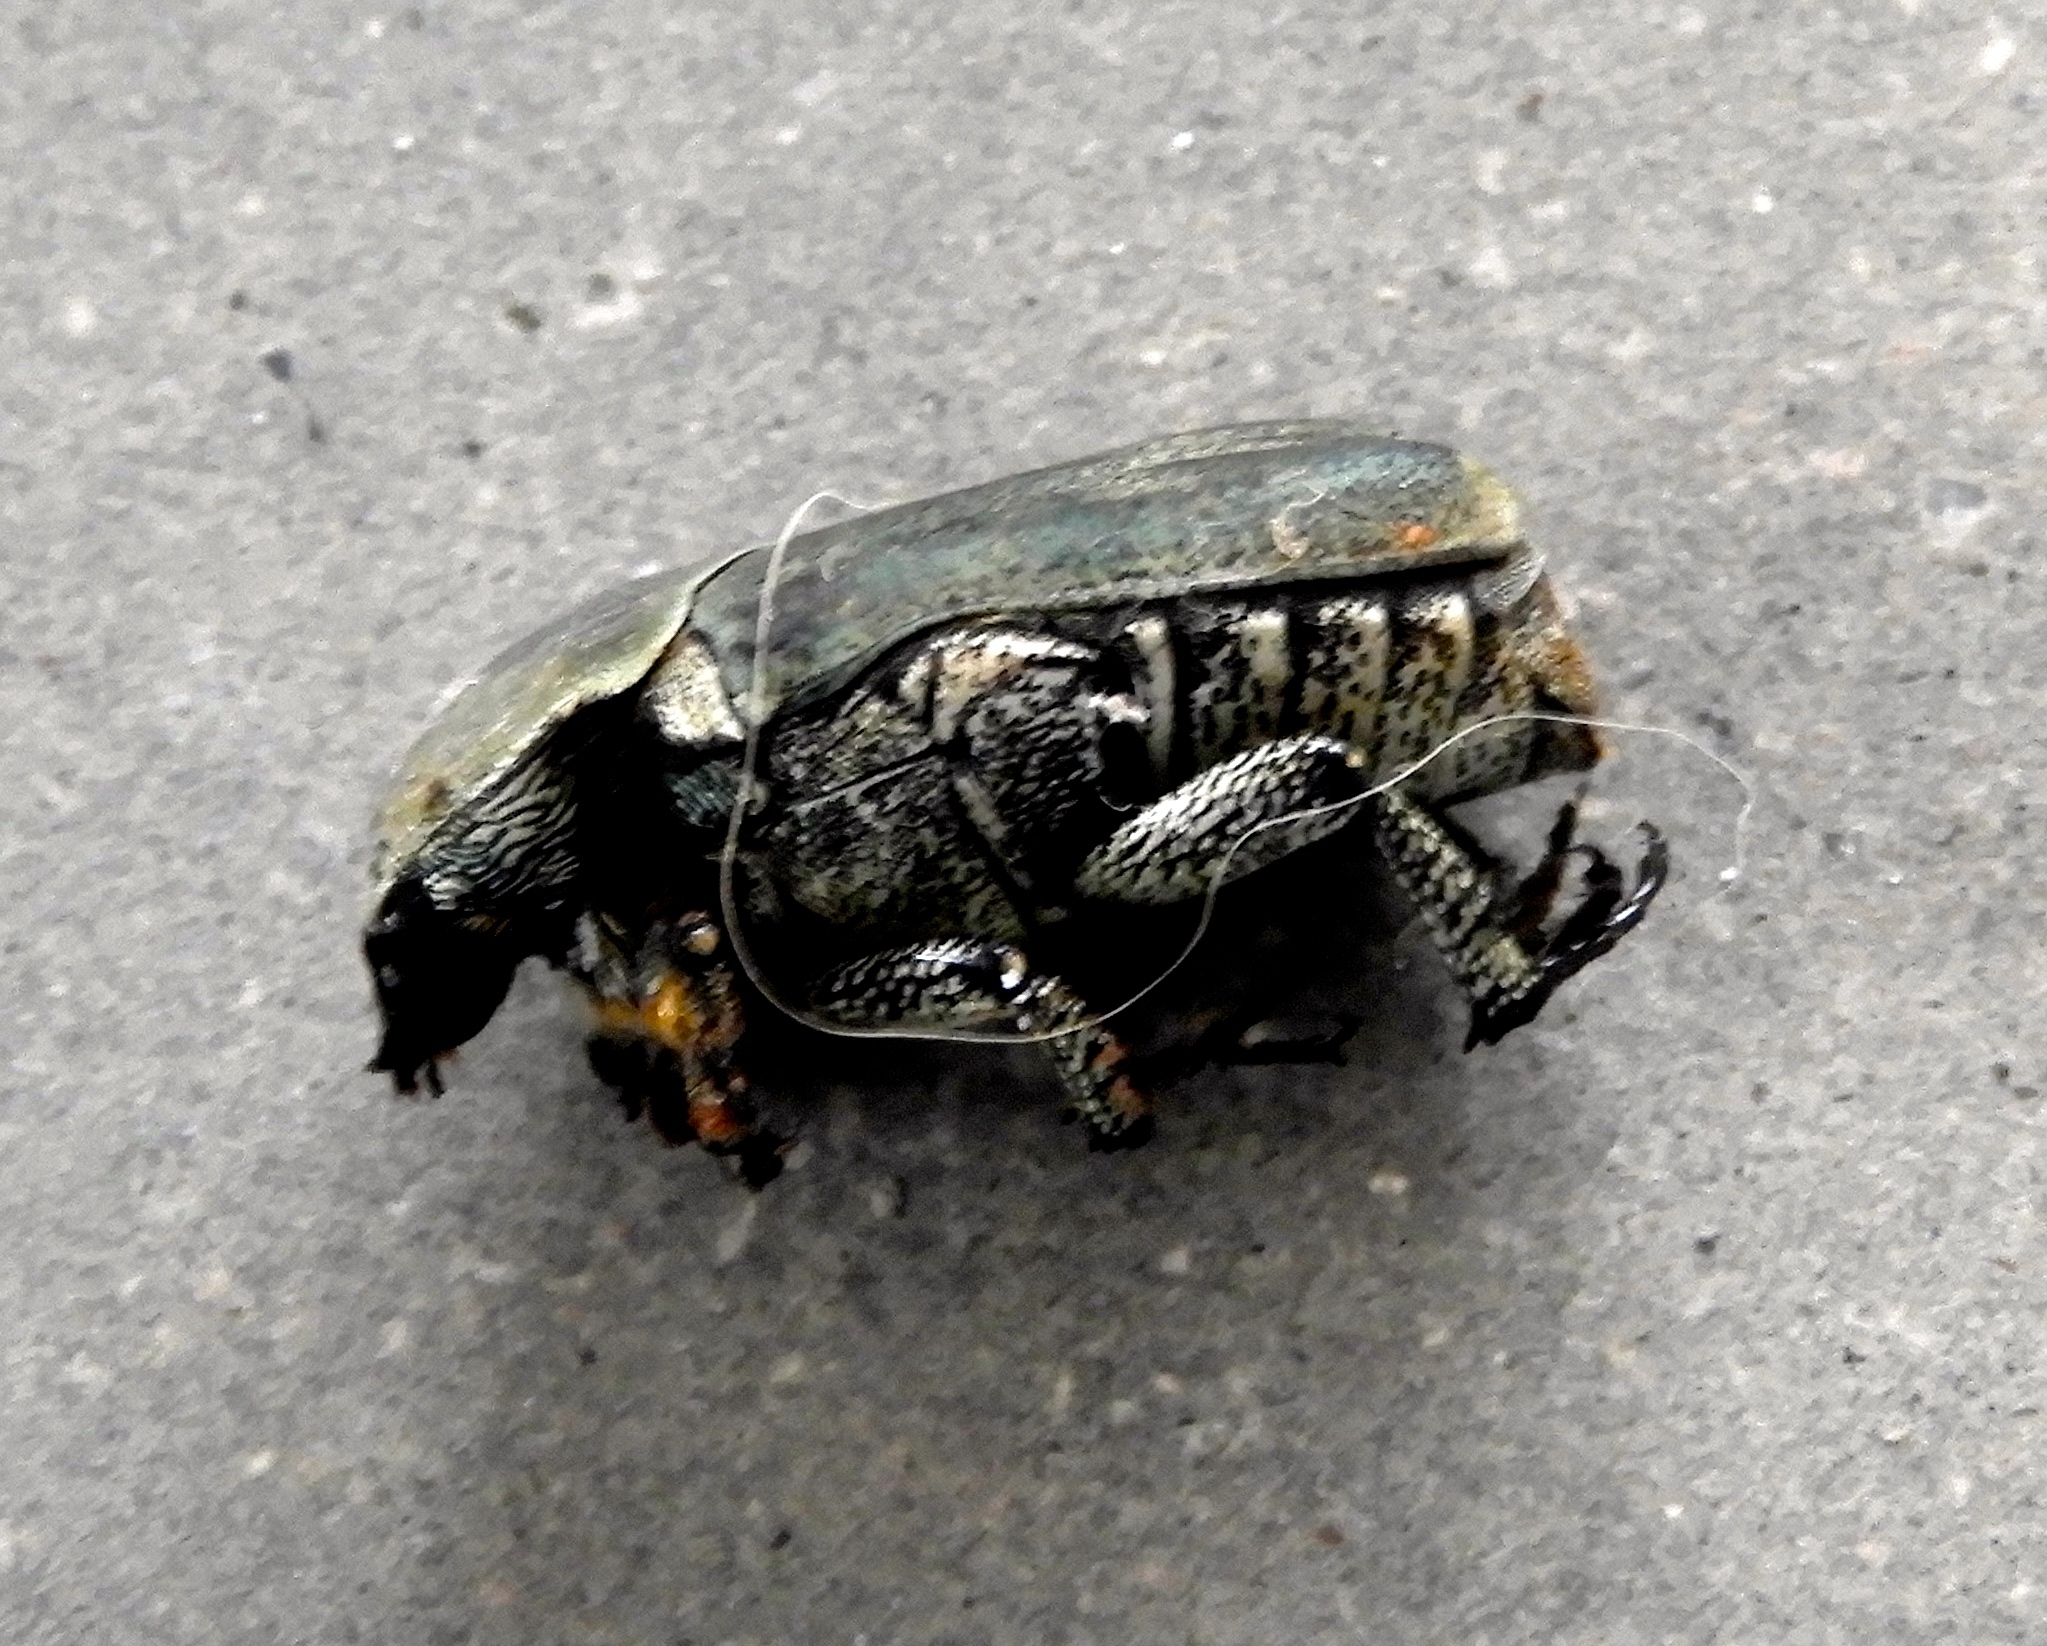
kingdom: Animalia
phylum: Arthropoda
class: Insecta
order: Coleoptera
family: Scarabaeidae
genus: Hologymnetis
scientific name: Hologymnetis margaritis
